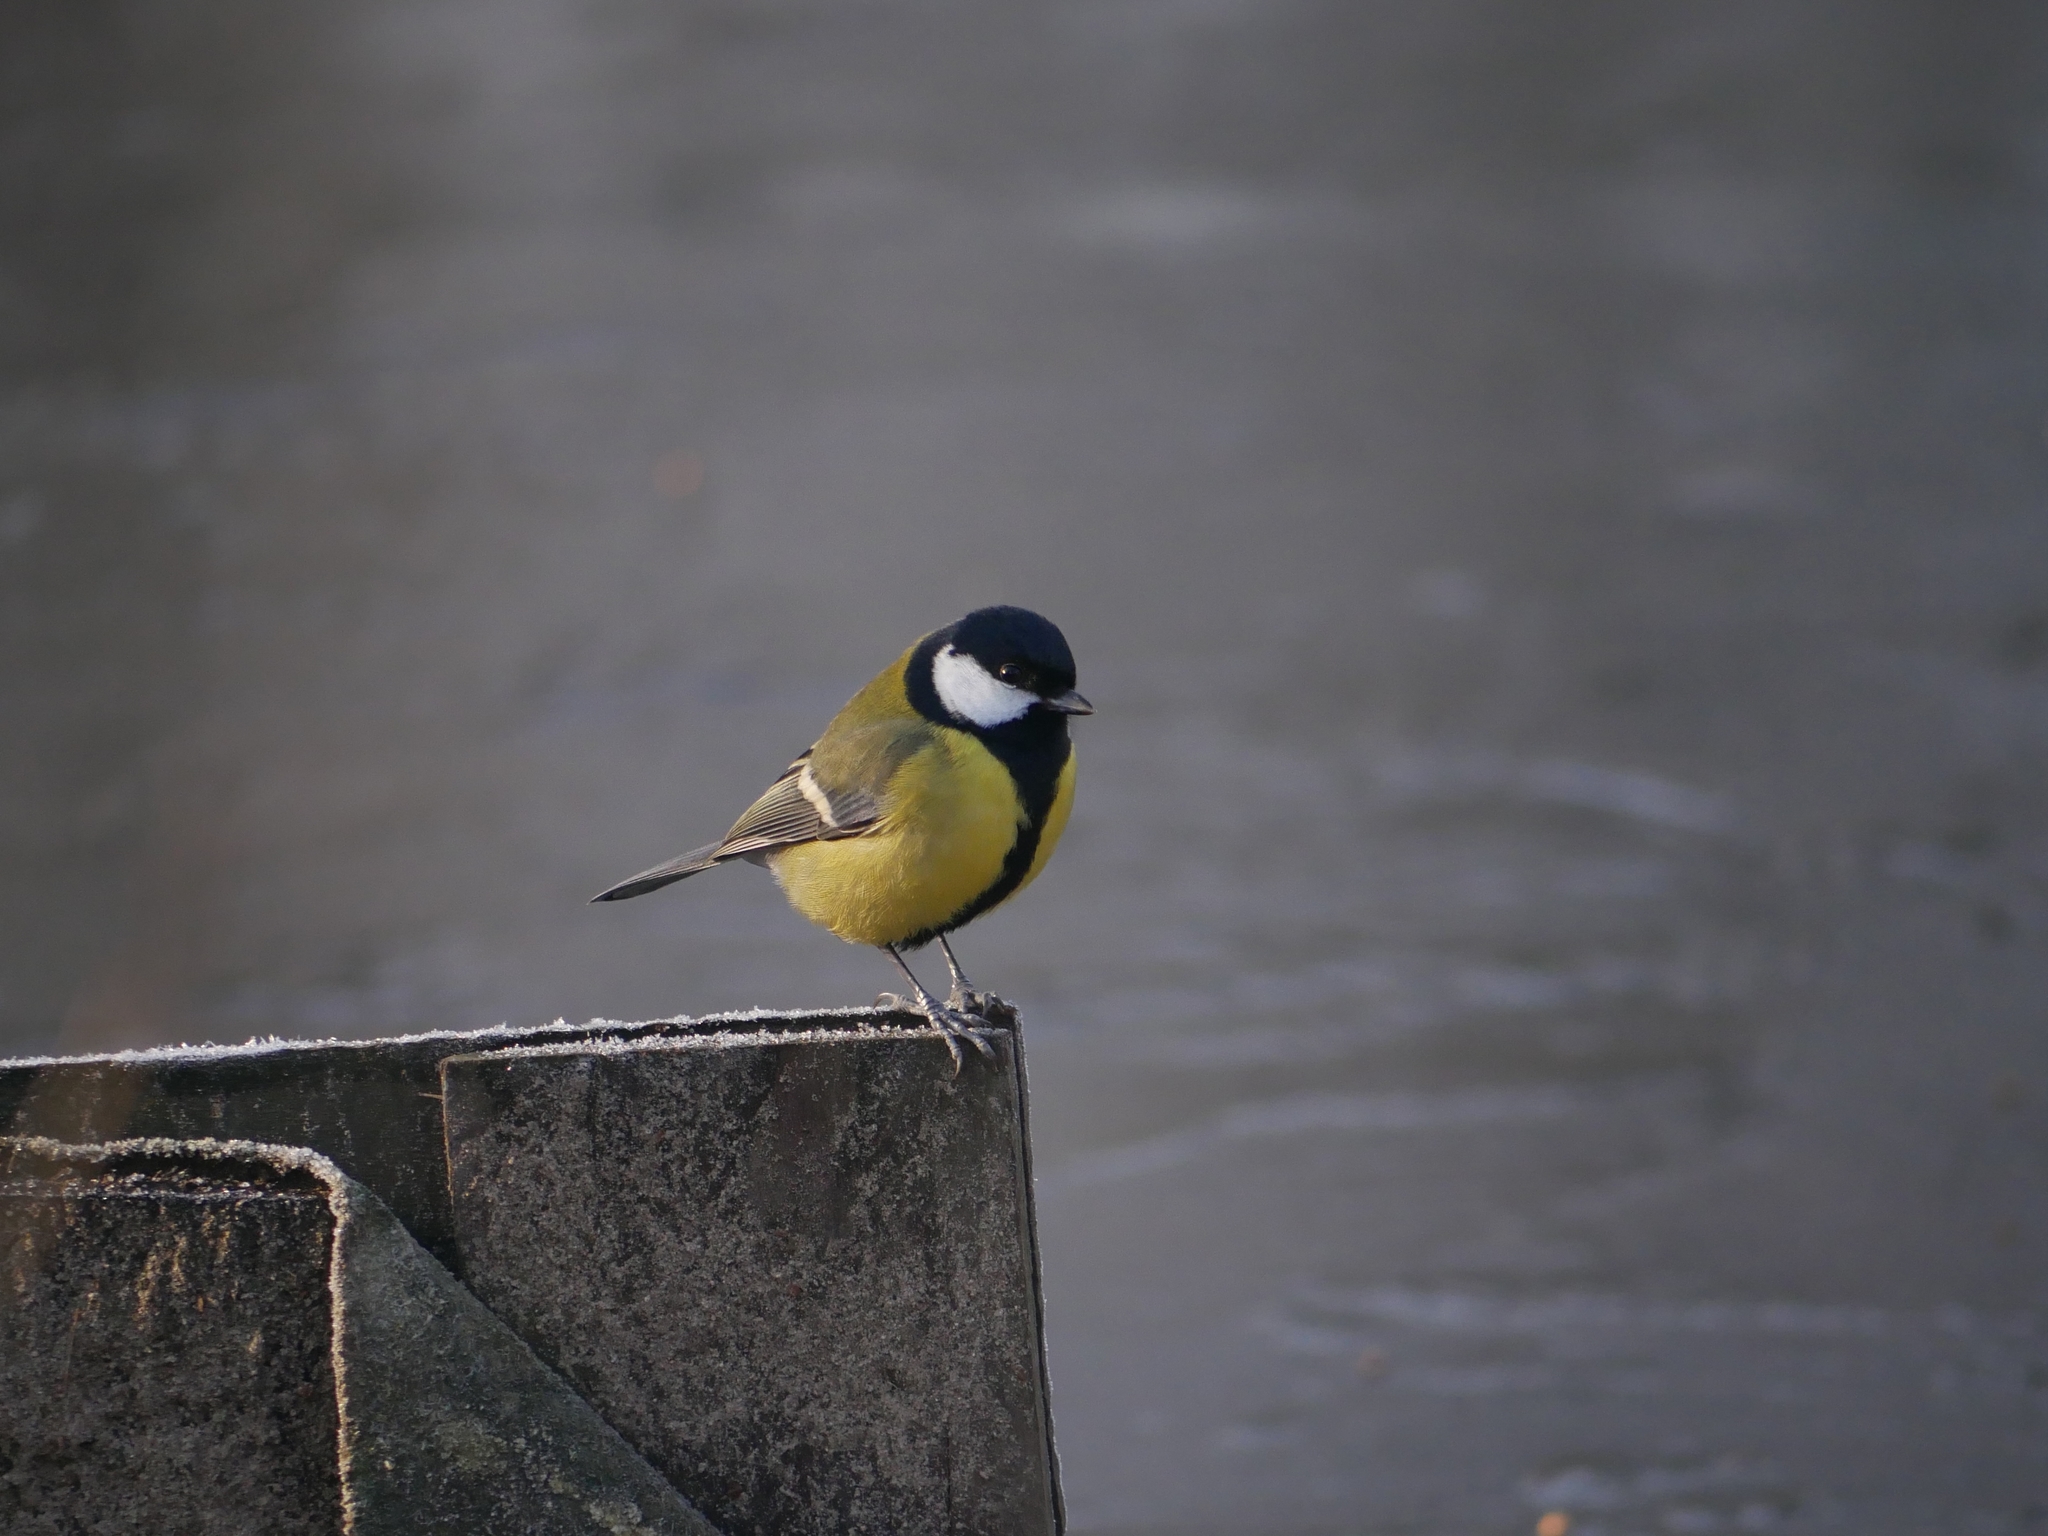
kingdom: Animalia
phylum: Chordata
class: Aves
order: Passeriformes
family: Paridae
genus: Parus
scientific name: Parus major
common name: Great tit
